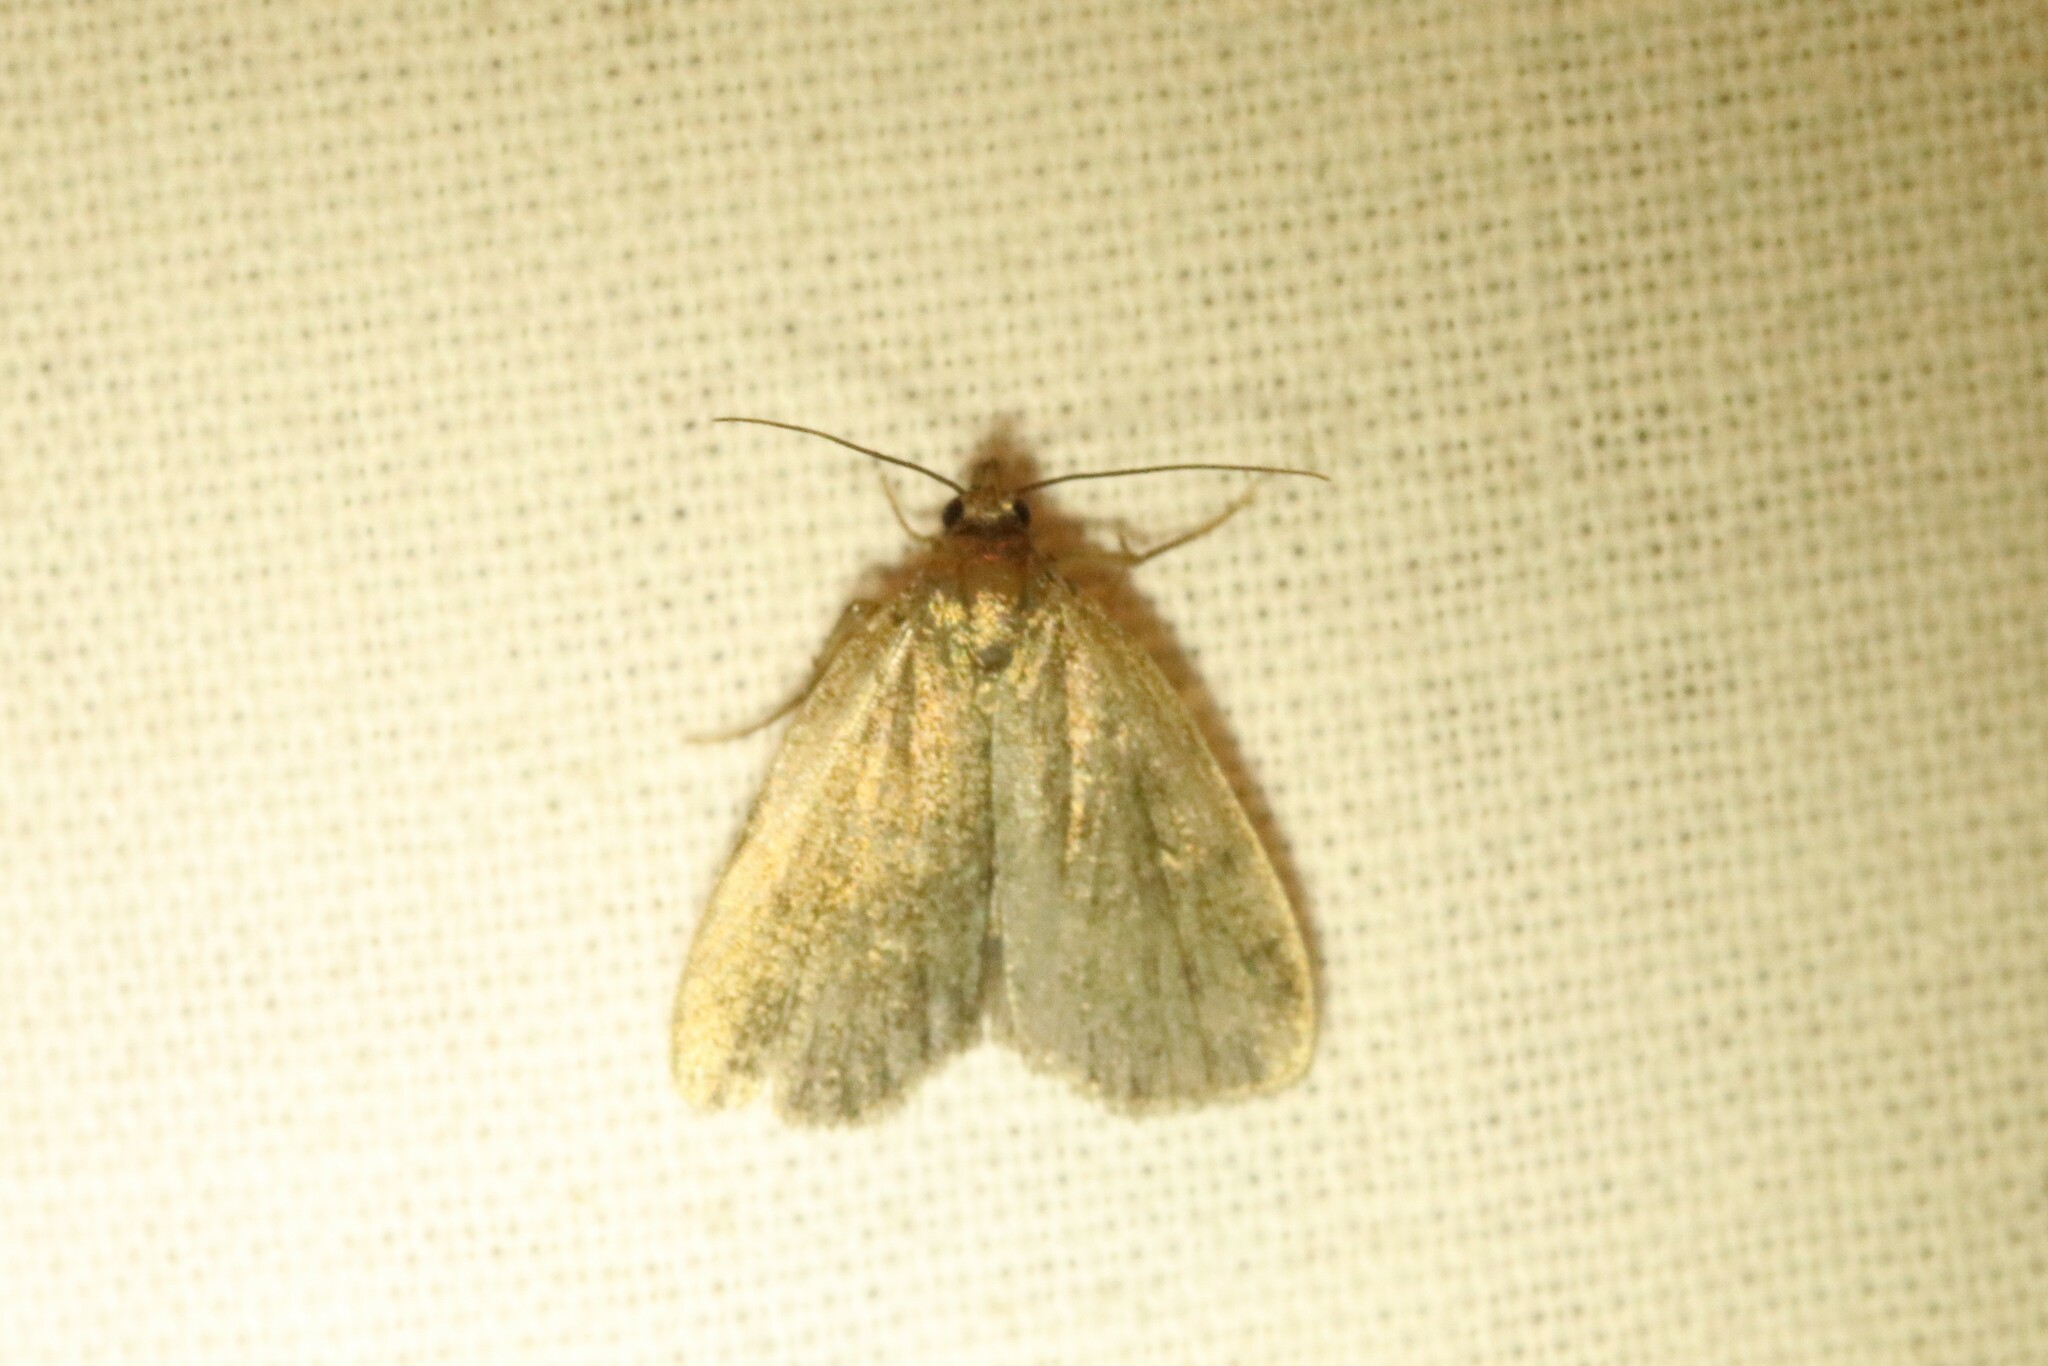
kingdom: Animalia
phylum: Arthropoda
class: Insecta
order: Lepidoptera
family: Erebidae
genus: Idia
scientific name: Idia rotundalis
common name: Rotund idia moth
